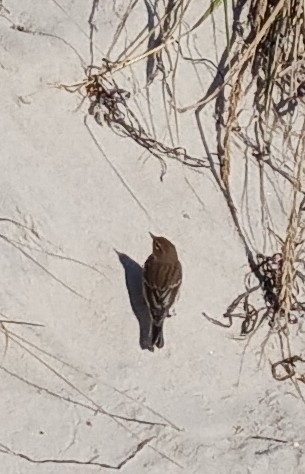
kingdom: Animalia
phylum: Chordata
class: Aves
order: Passeriformes
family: Parulidae
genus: Setophaga
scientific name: Setophaga coronata
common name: Myrtle warbler
